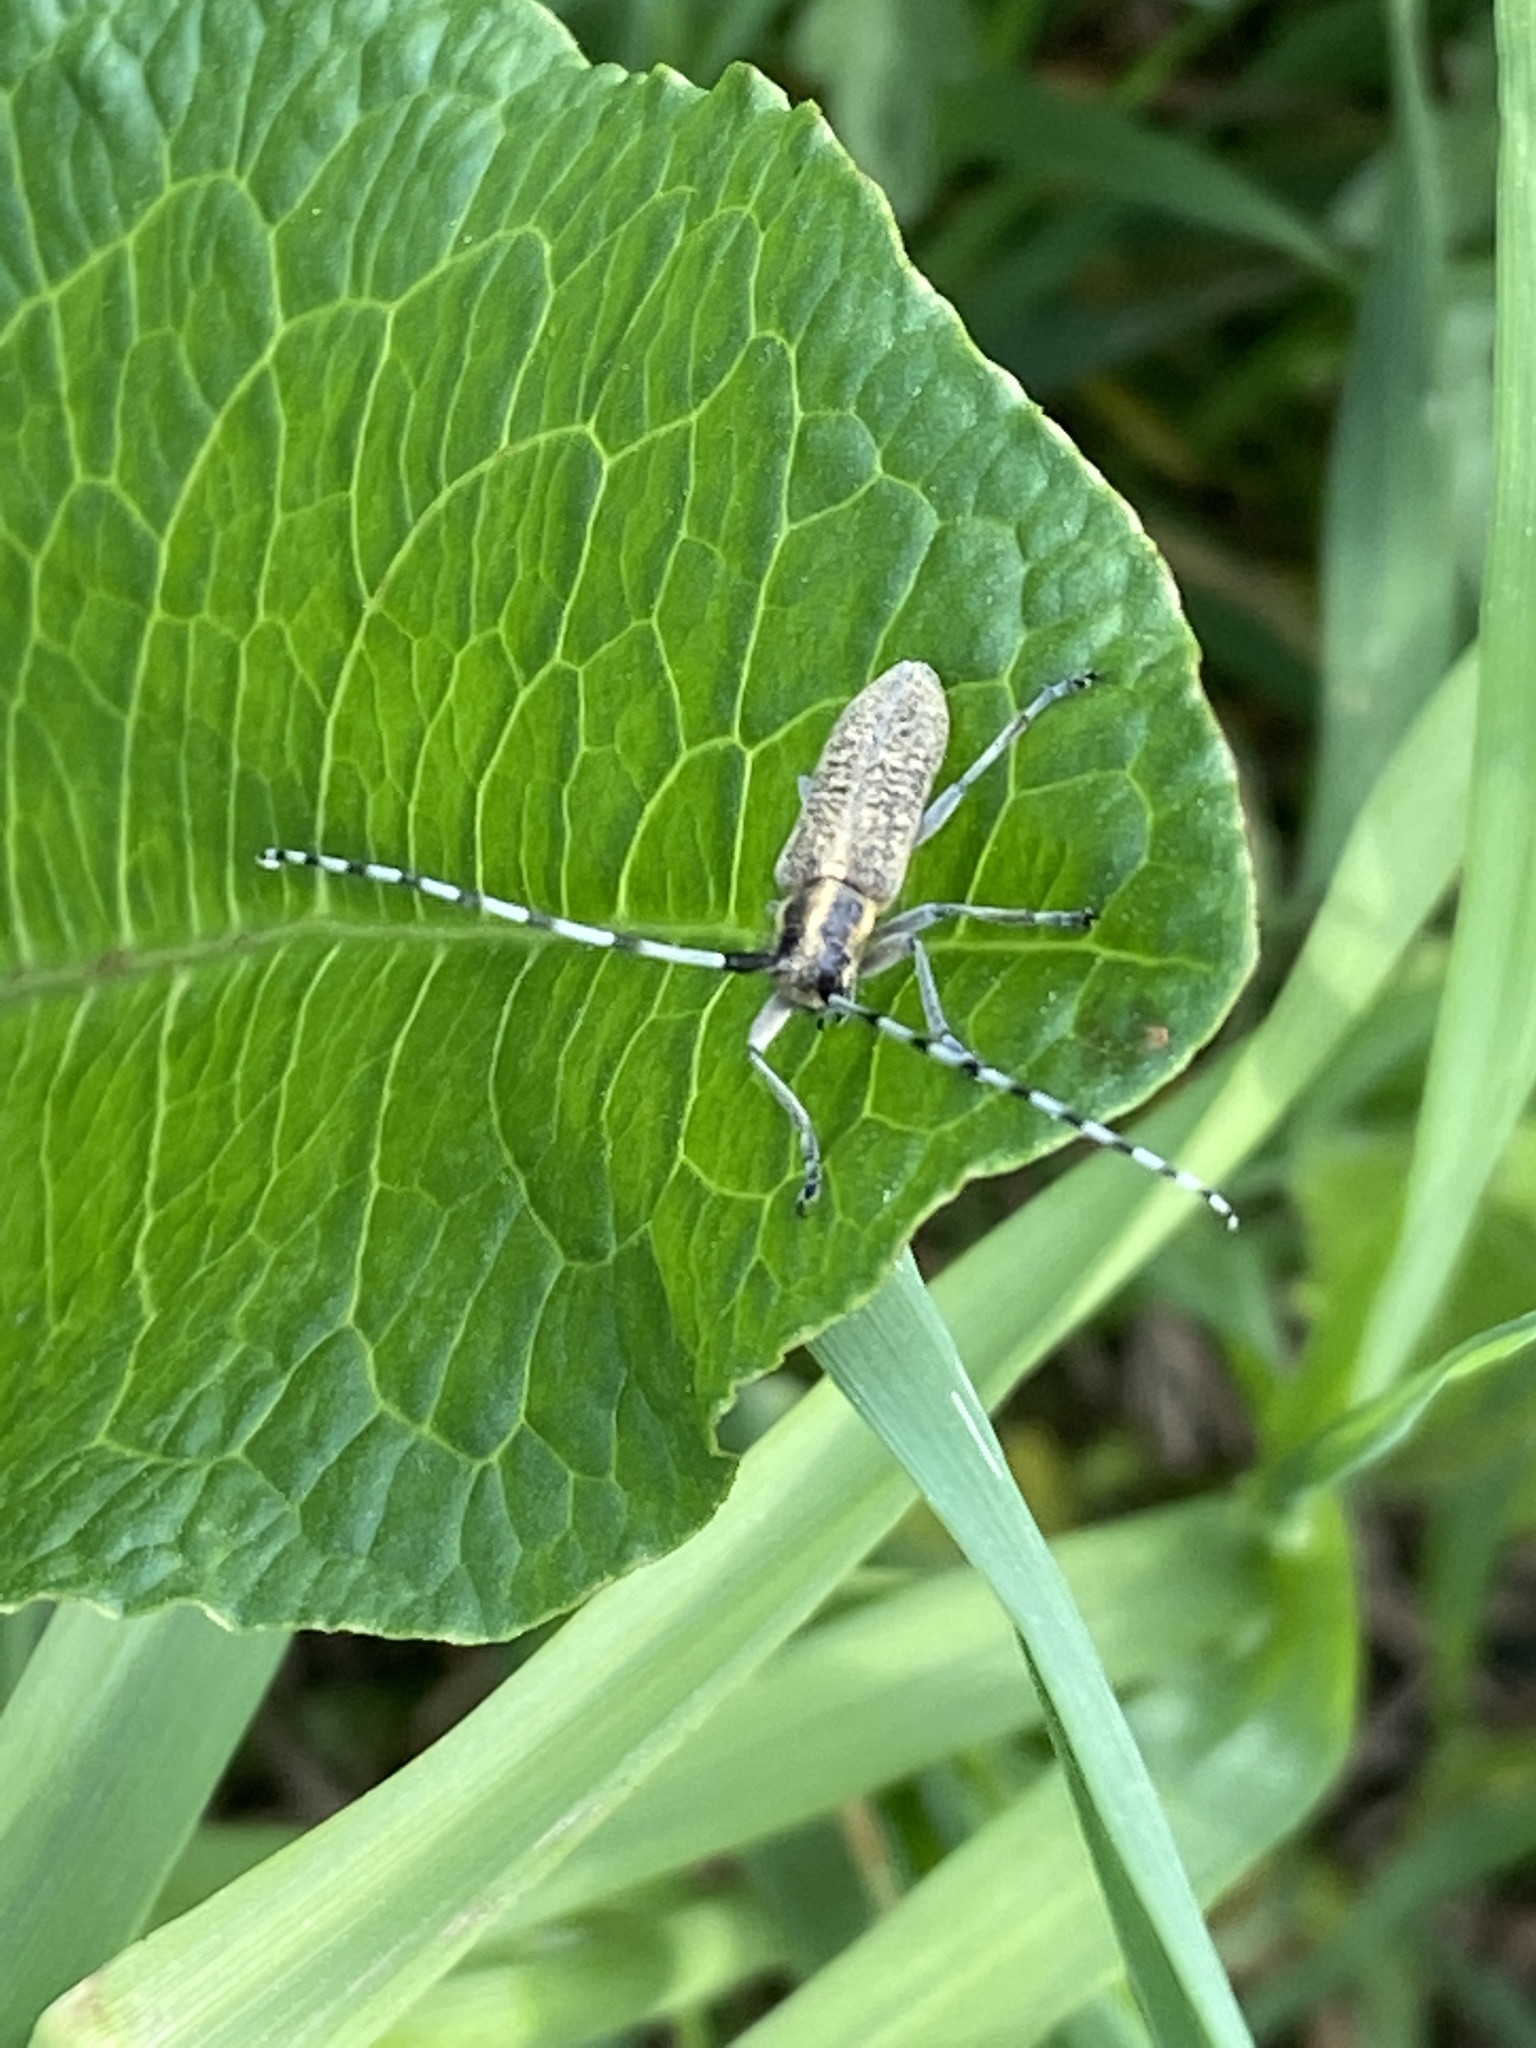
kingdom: Animalia
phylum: Arthropoda
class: Insecta
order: Coleoptera
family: Cerambycidae
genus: Agapanthia
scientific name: Agapanthia villosoviridescens
